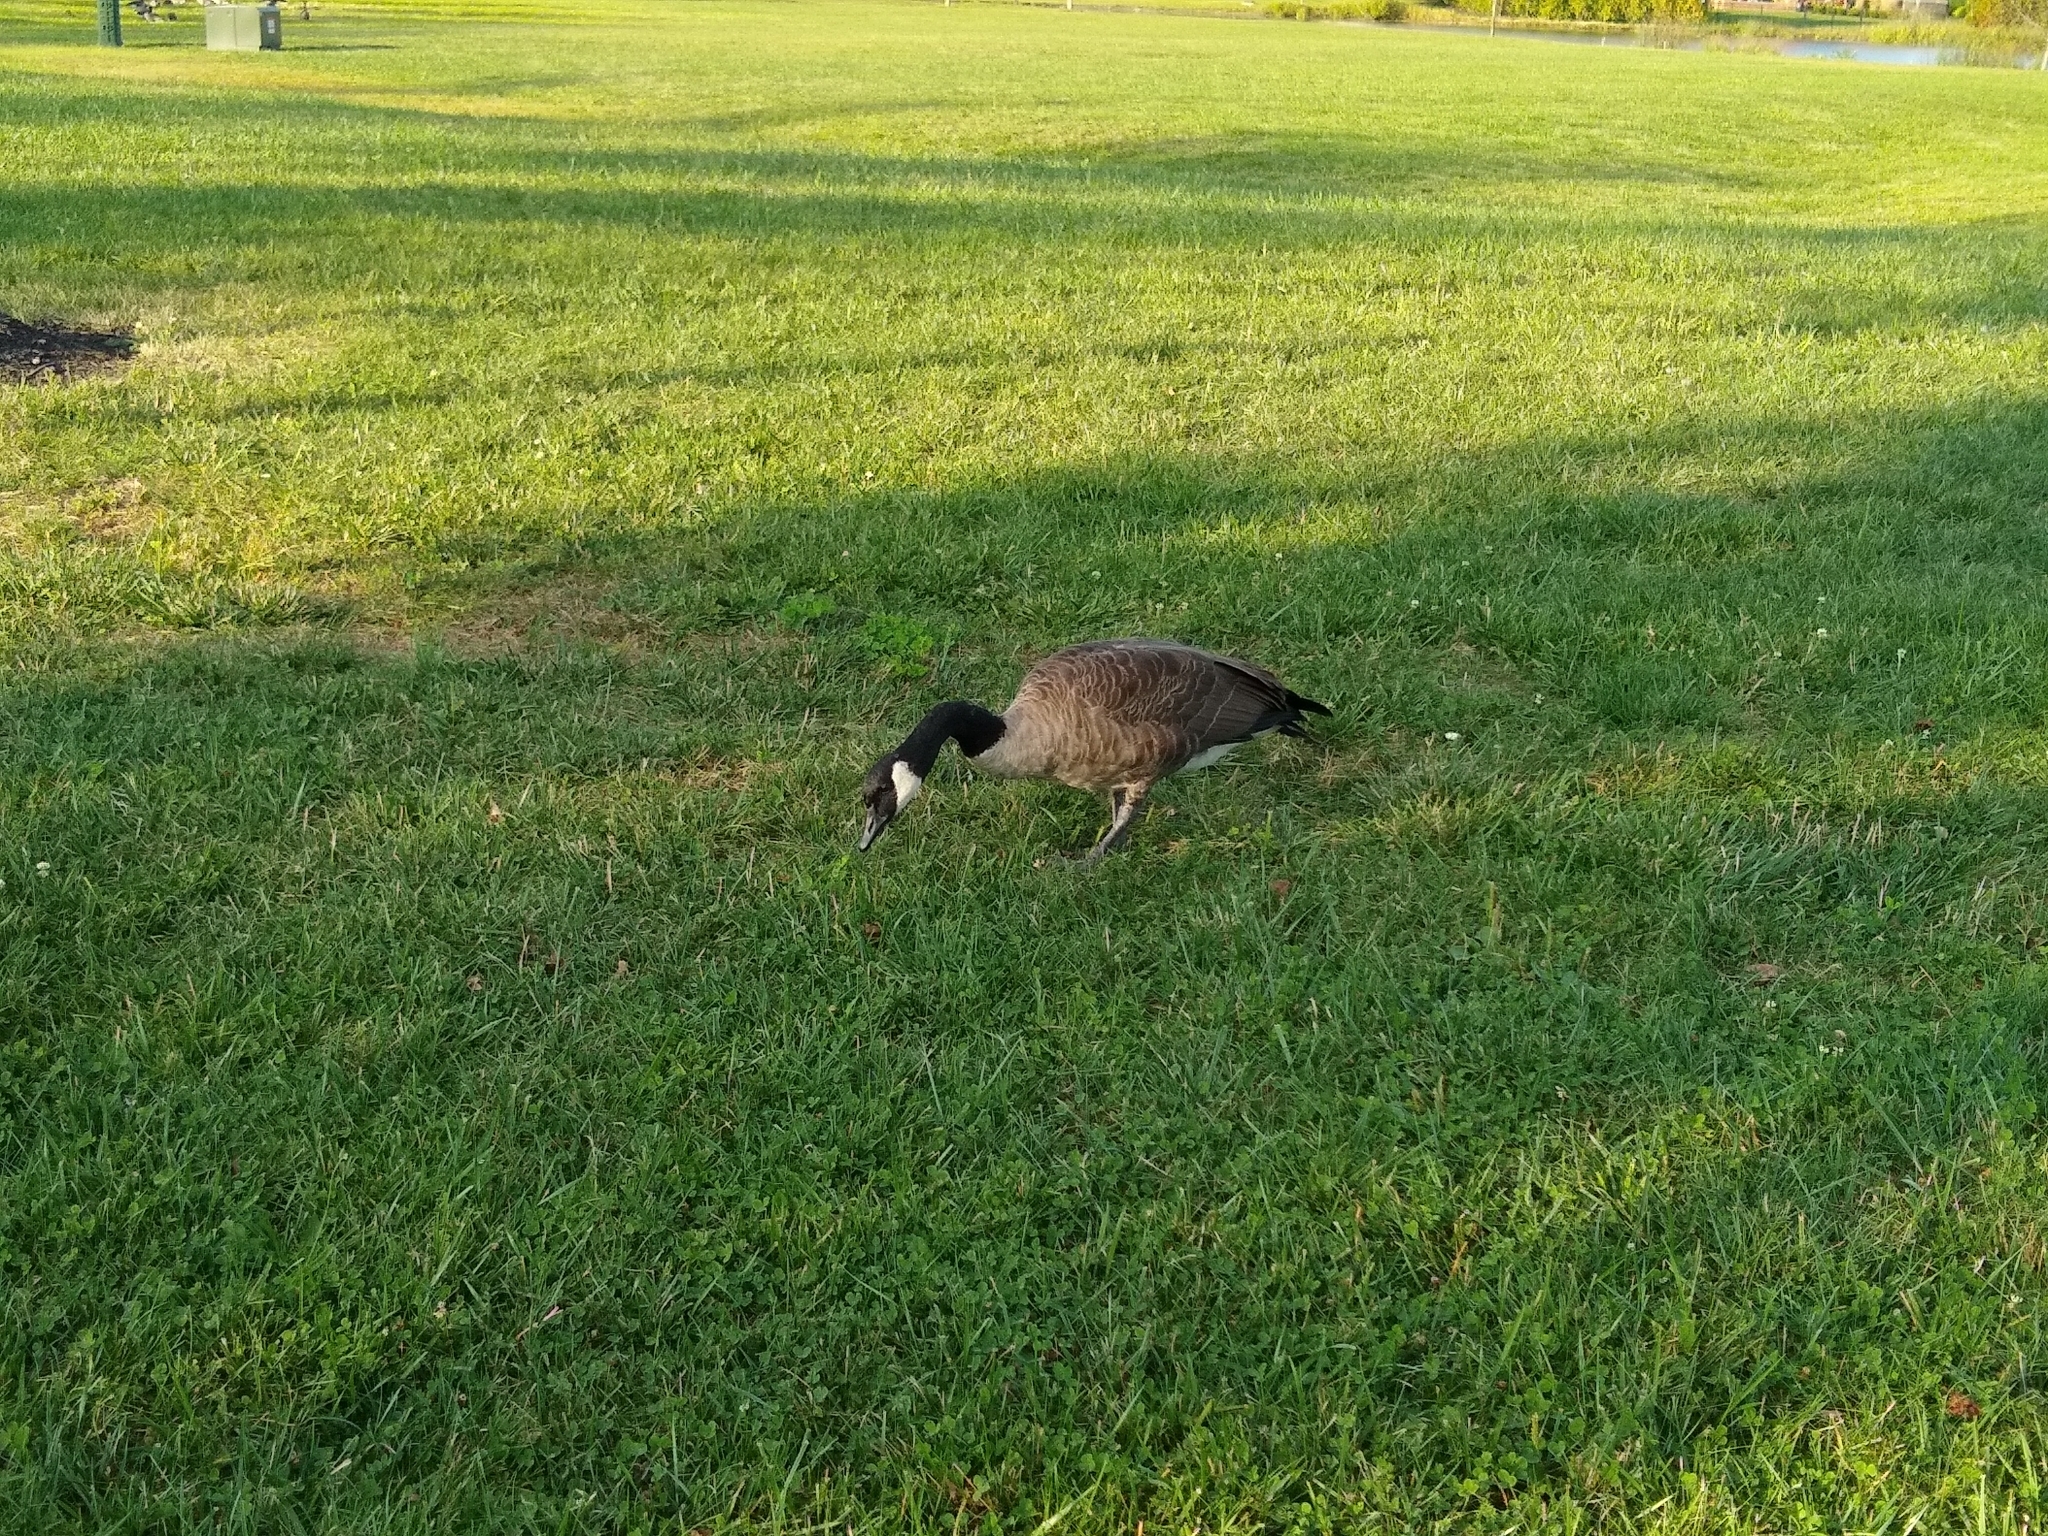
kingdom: Animalia
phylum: Chordata
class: Aves
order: Anseriformes
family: Anatidae
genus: Branta
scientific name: Branta canadensis
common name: Canada goose
